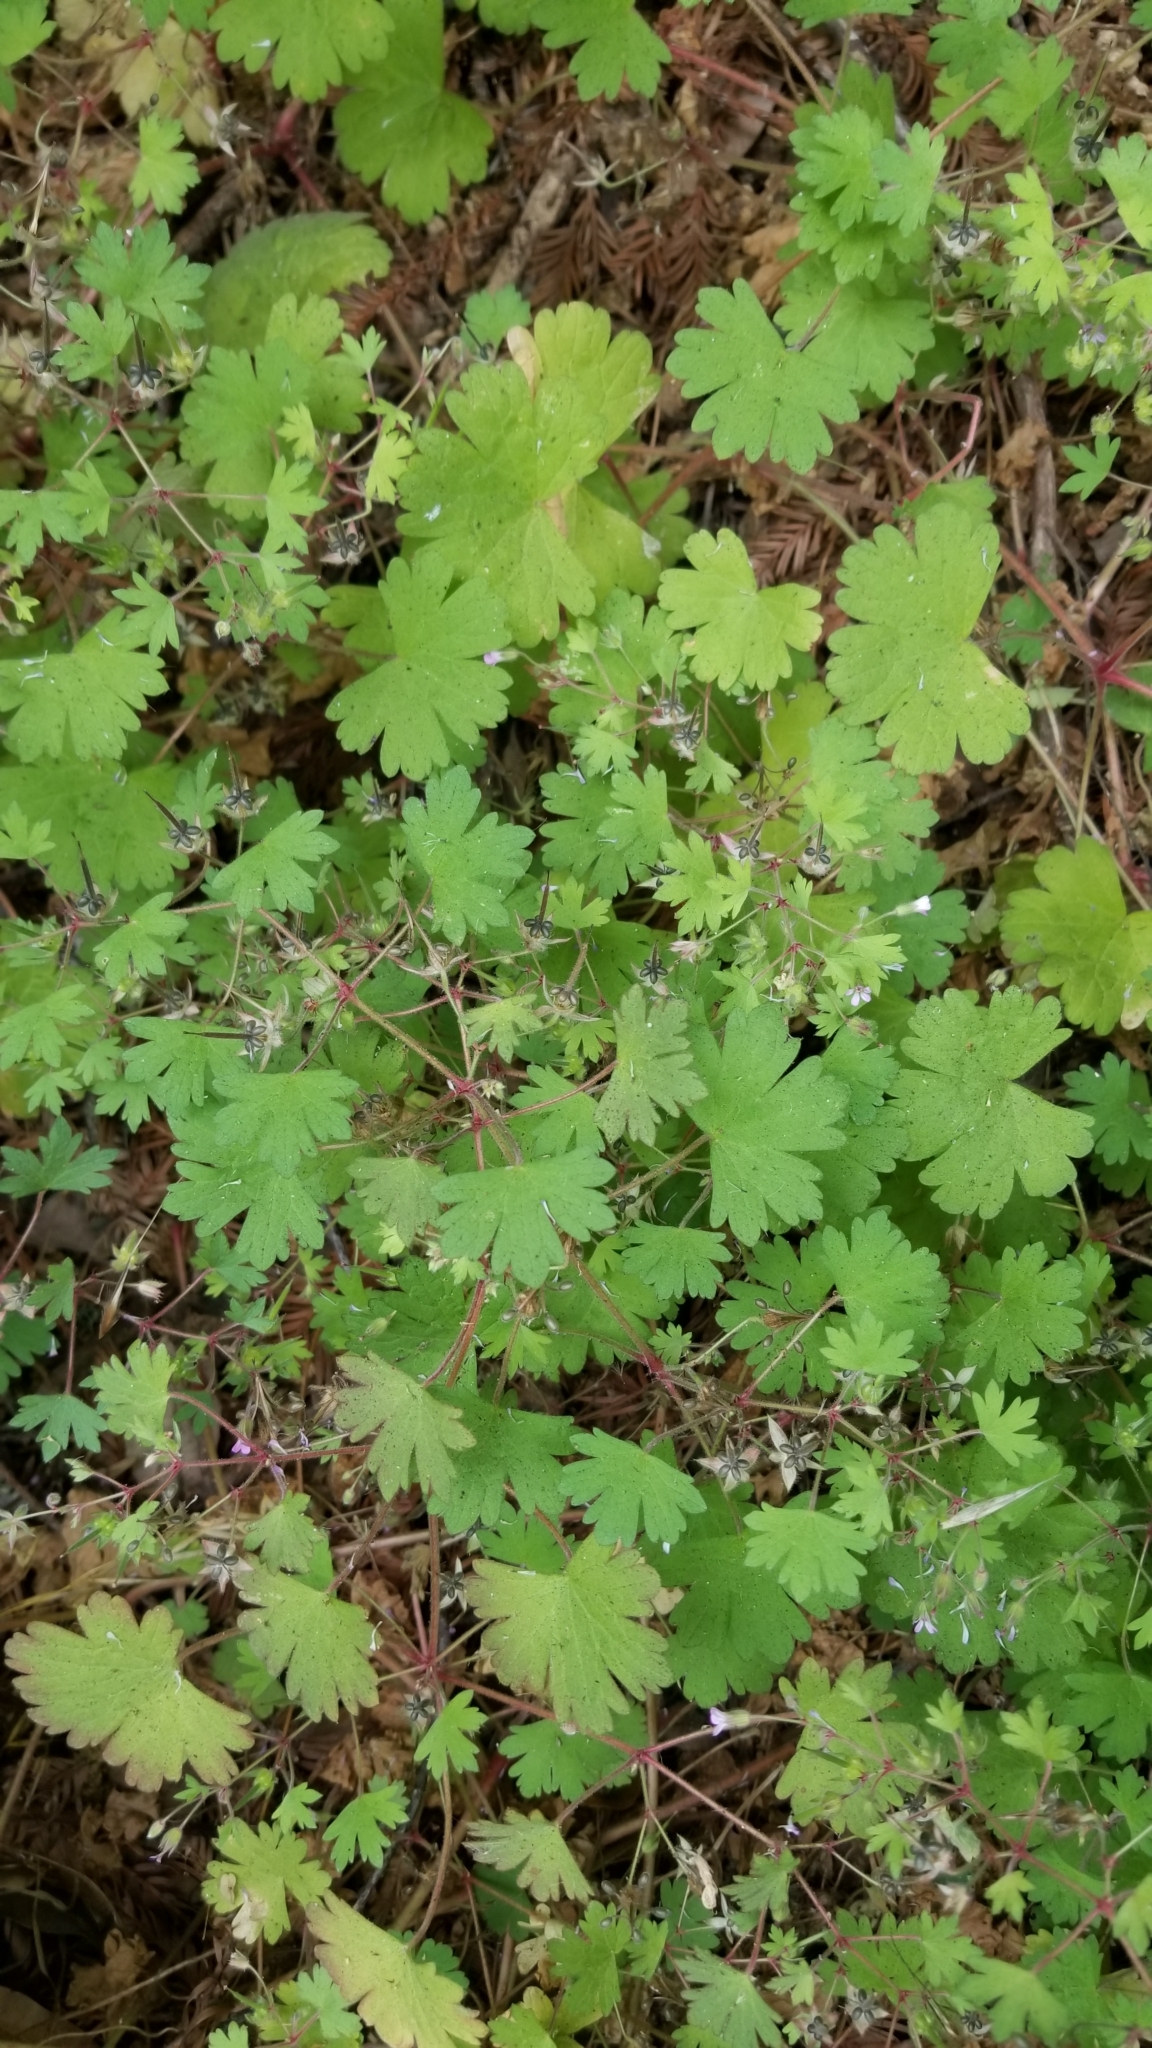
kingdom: Plantae
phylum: Tracheophyta
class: Magnoliopsida
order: Geraniales
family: Geraniaceae
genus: Geranium
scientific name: Geranium rotundifolium
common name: Round-leaved crane's-bill
